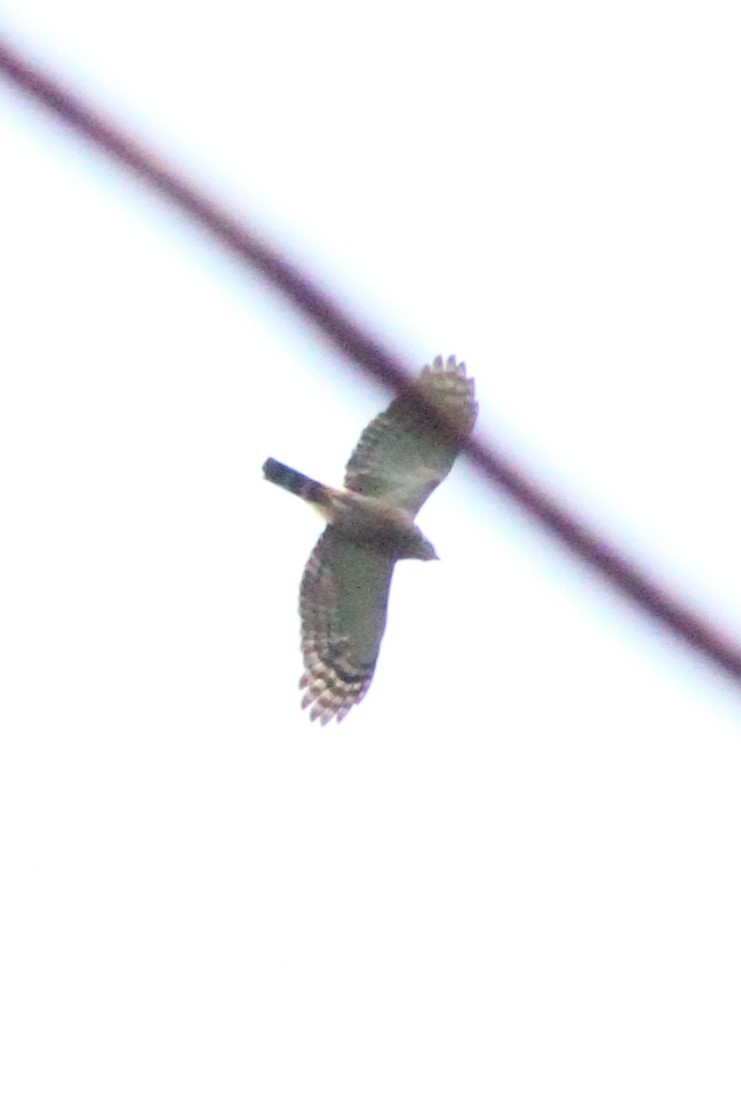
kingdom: Animalia
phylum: Chordata
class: Aves
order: Accipitriformes
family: Accipitridae
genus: Harpagus
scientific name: Harpagus bidentatus
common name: Double-toothed kite
